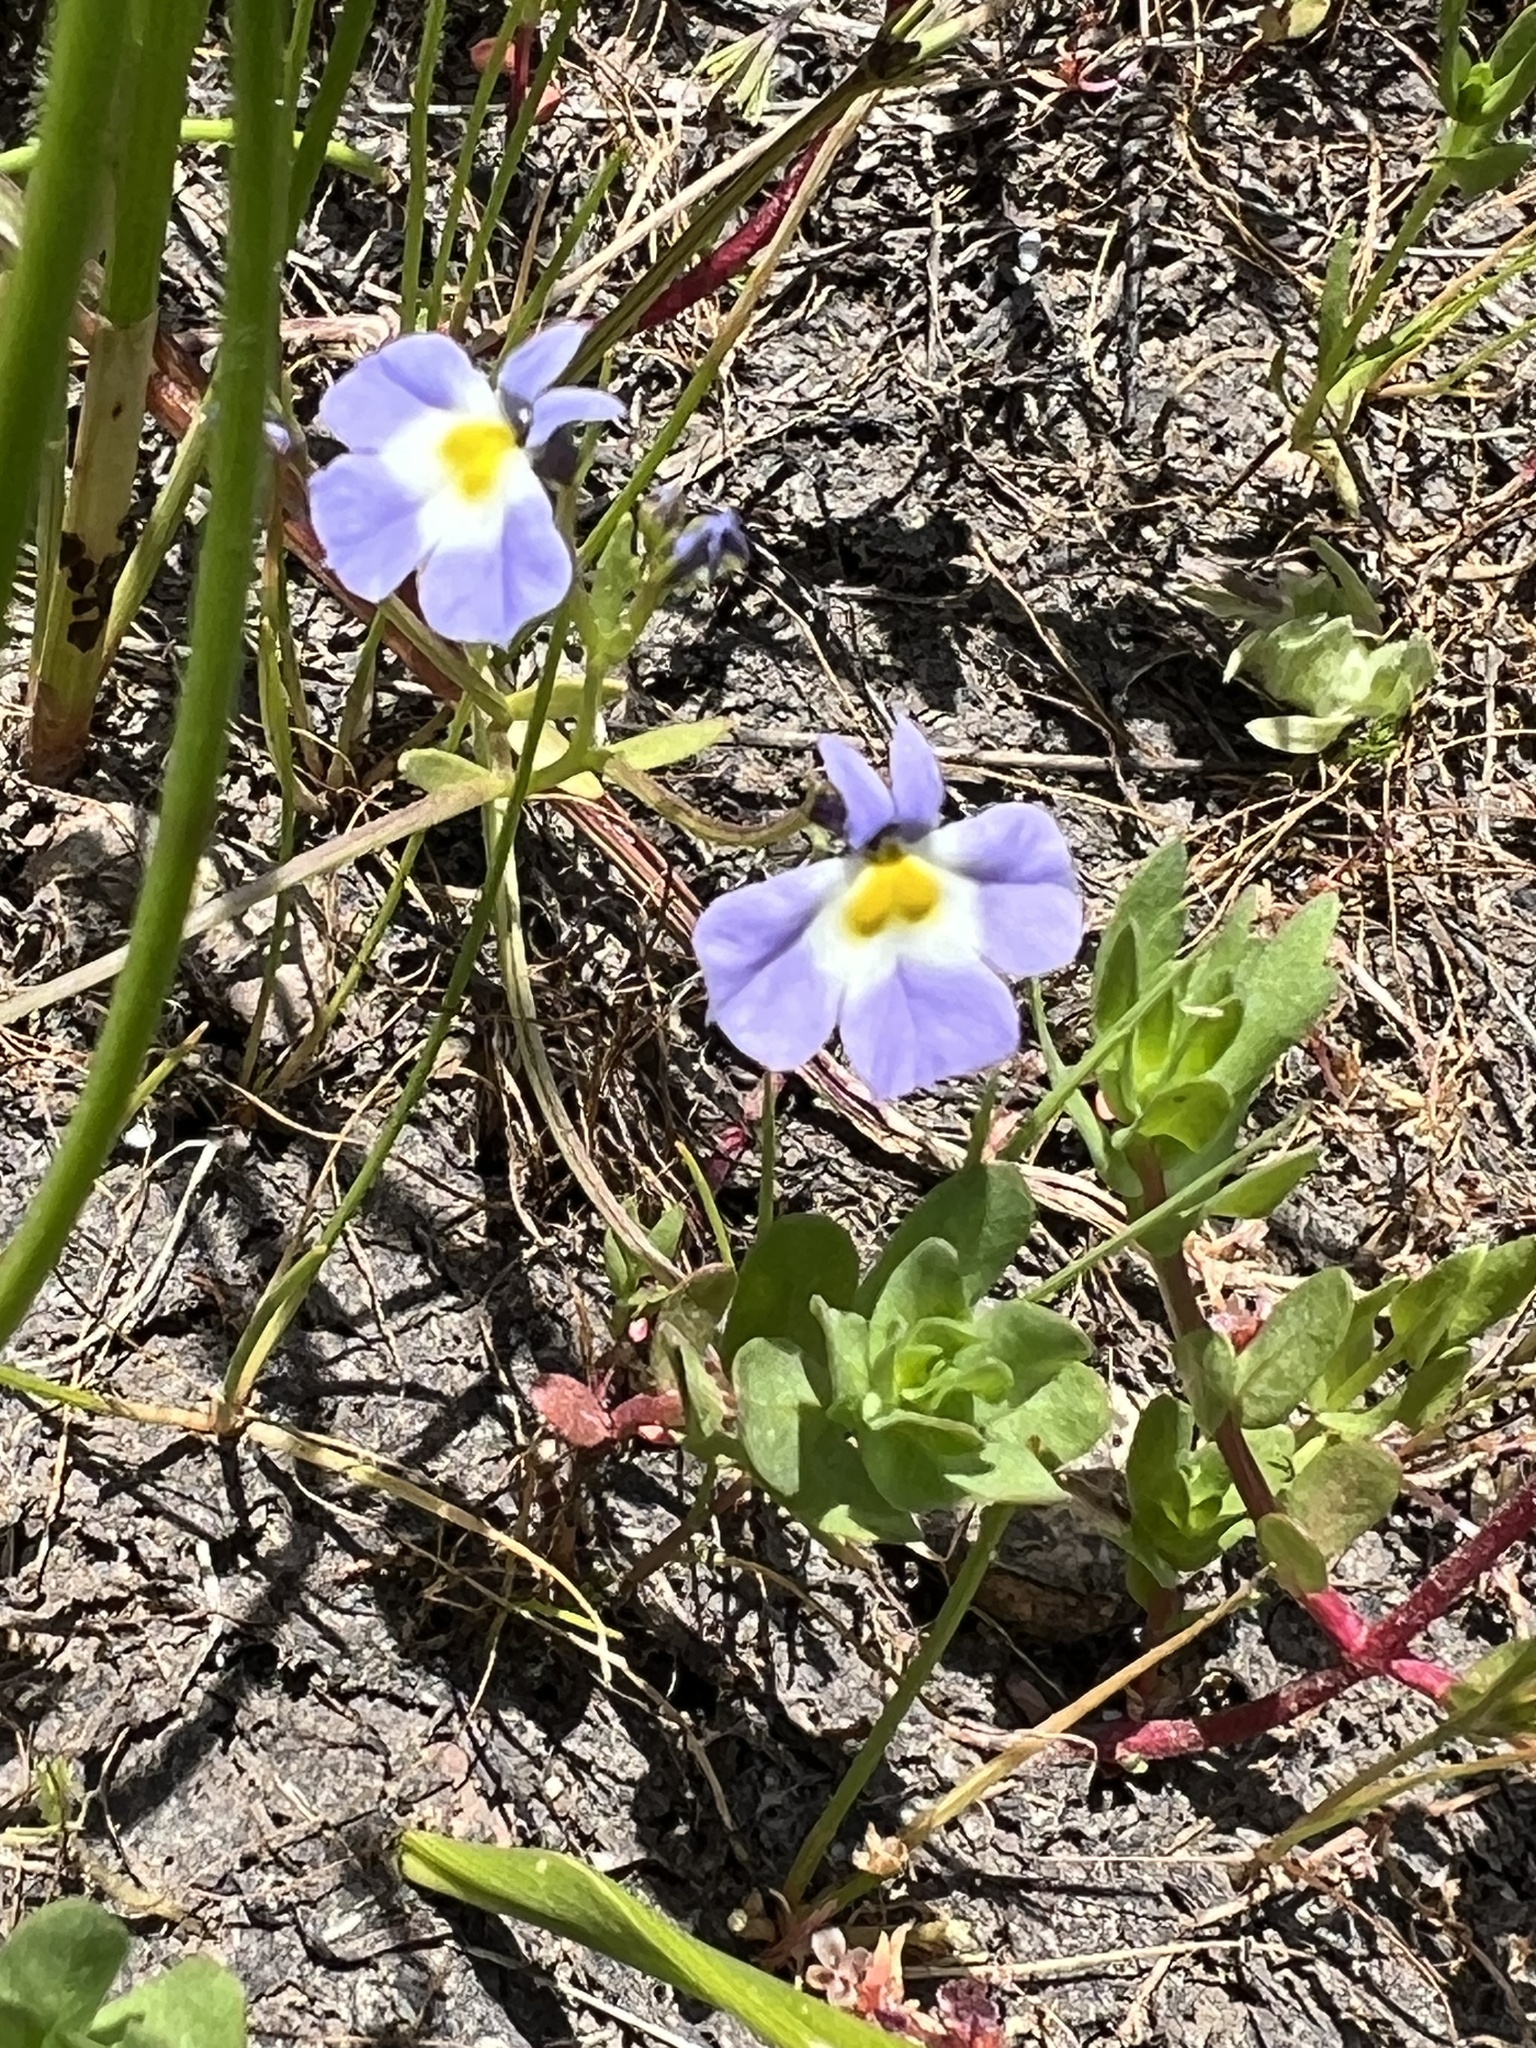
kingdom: Plantae
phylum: Tracheophyta
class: Magnoliopsida
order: Asterales
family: Campanulaceae
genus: Downingia
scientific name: Downingia cuspidata
